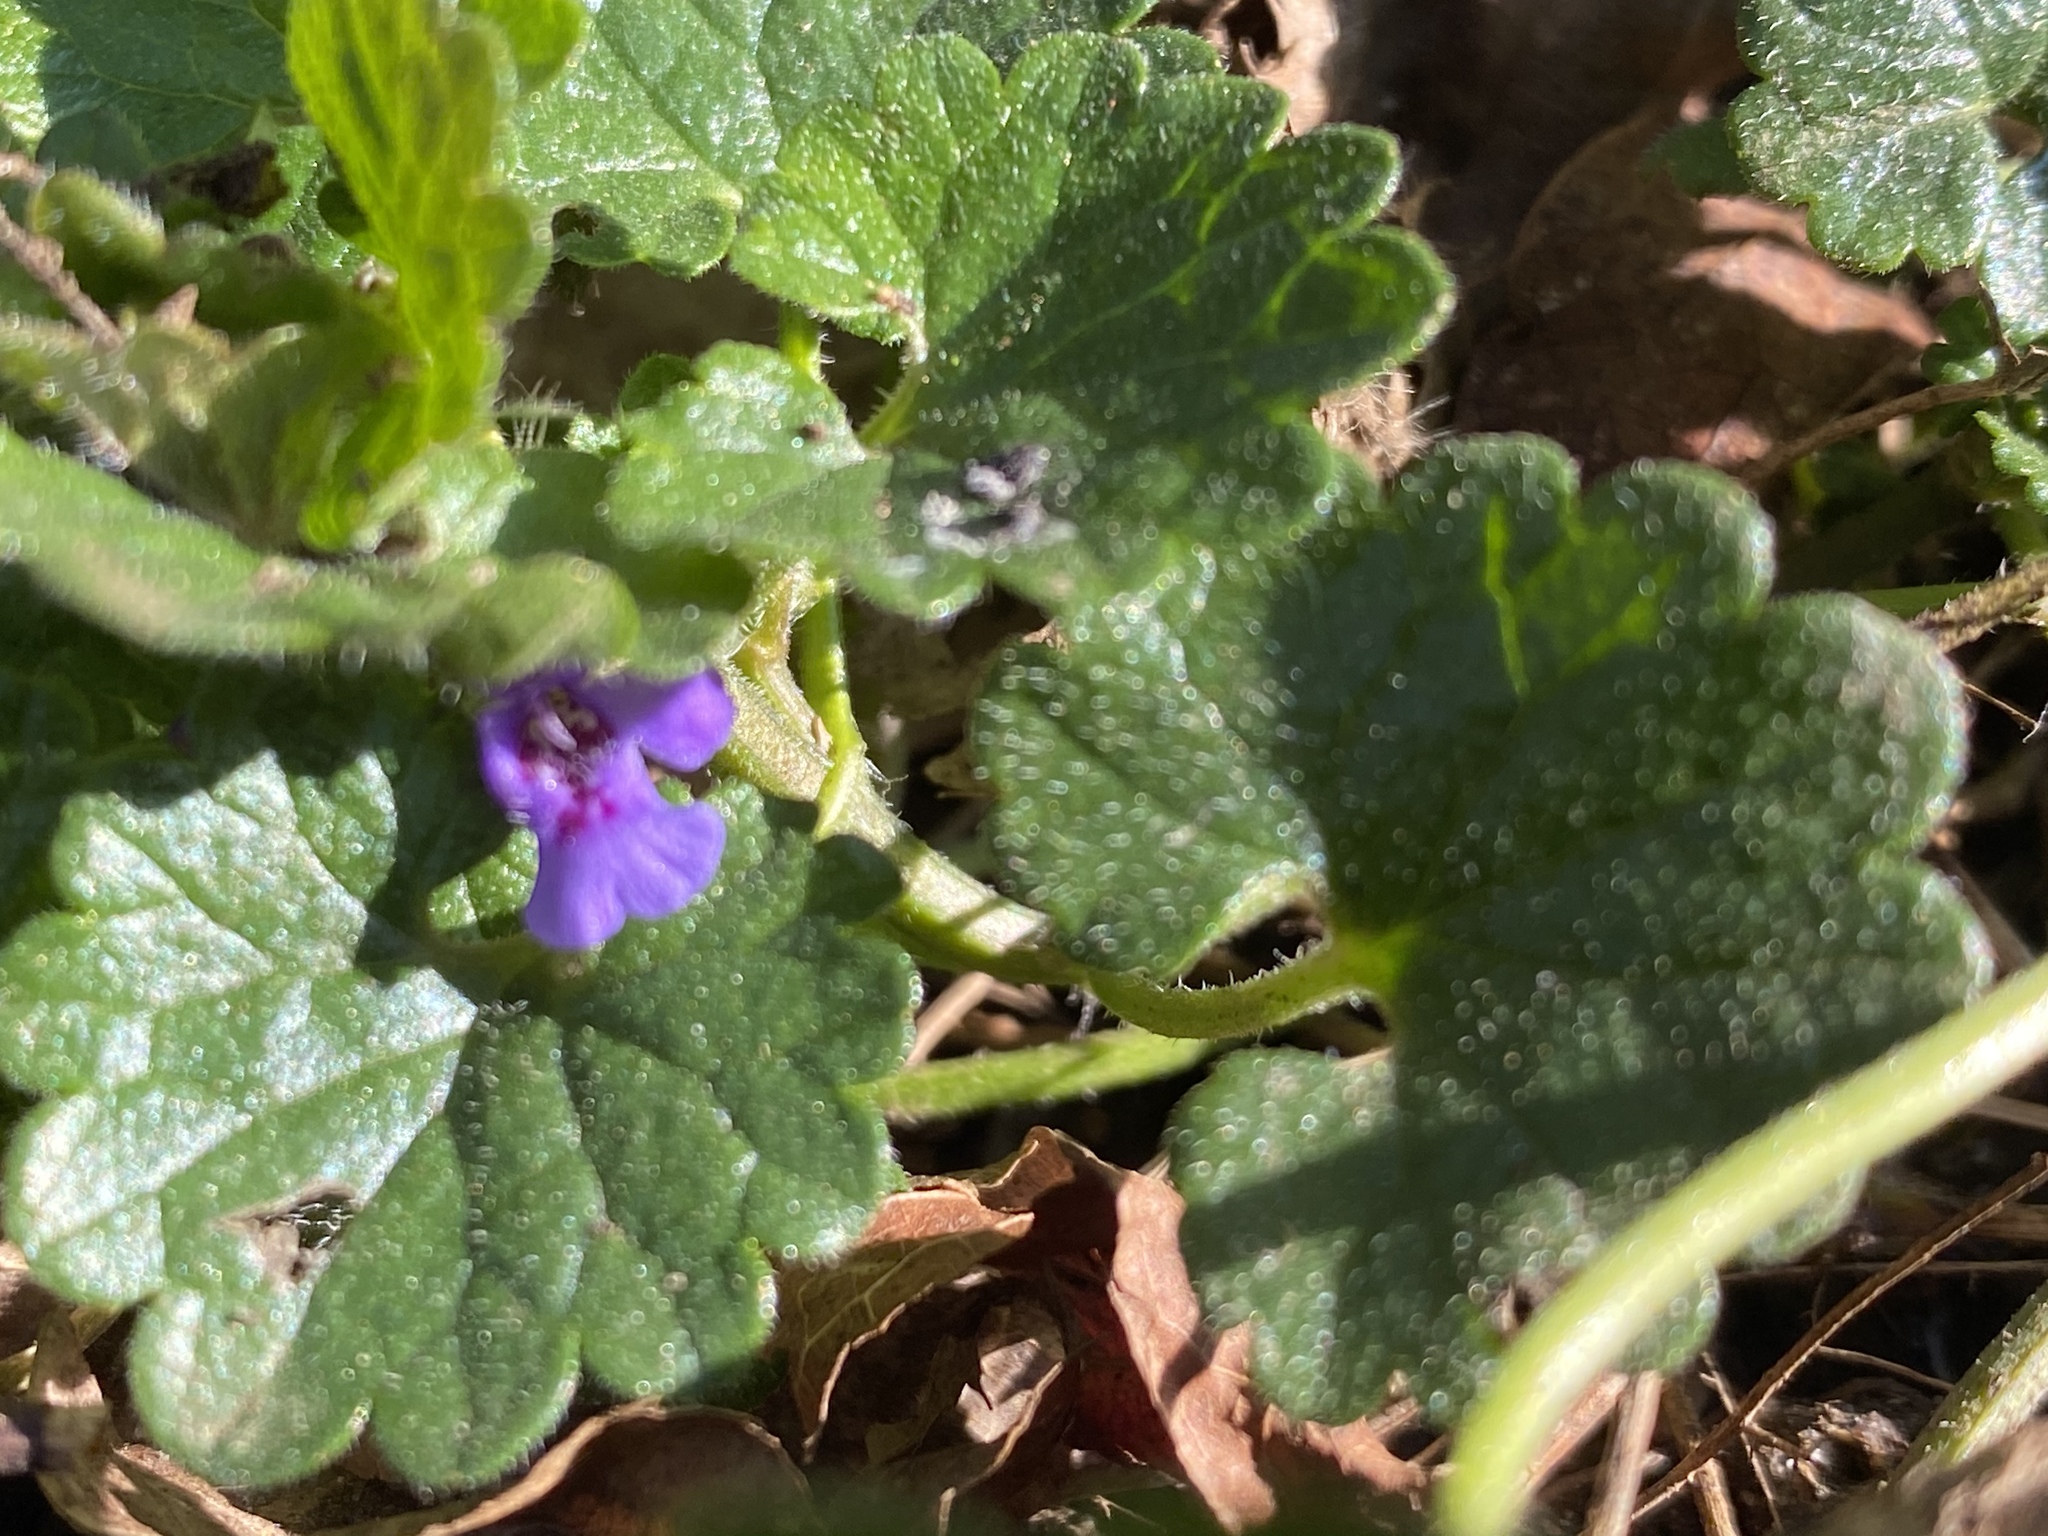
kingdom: Plantae
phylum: Tracheophyta
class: Magnoliopsida
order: Lamiales
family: Lamiaceae
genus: Glechoma
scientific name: Glechoma hederacea
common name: Ground ivy
